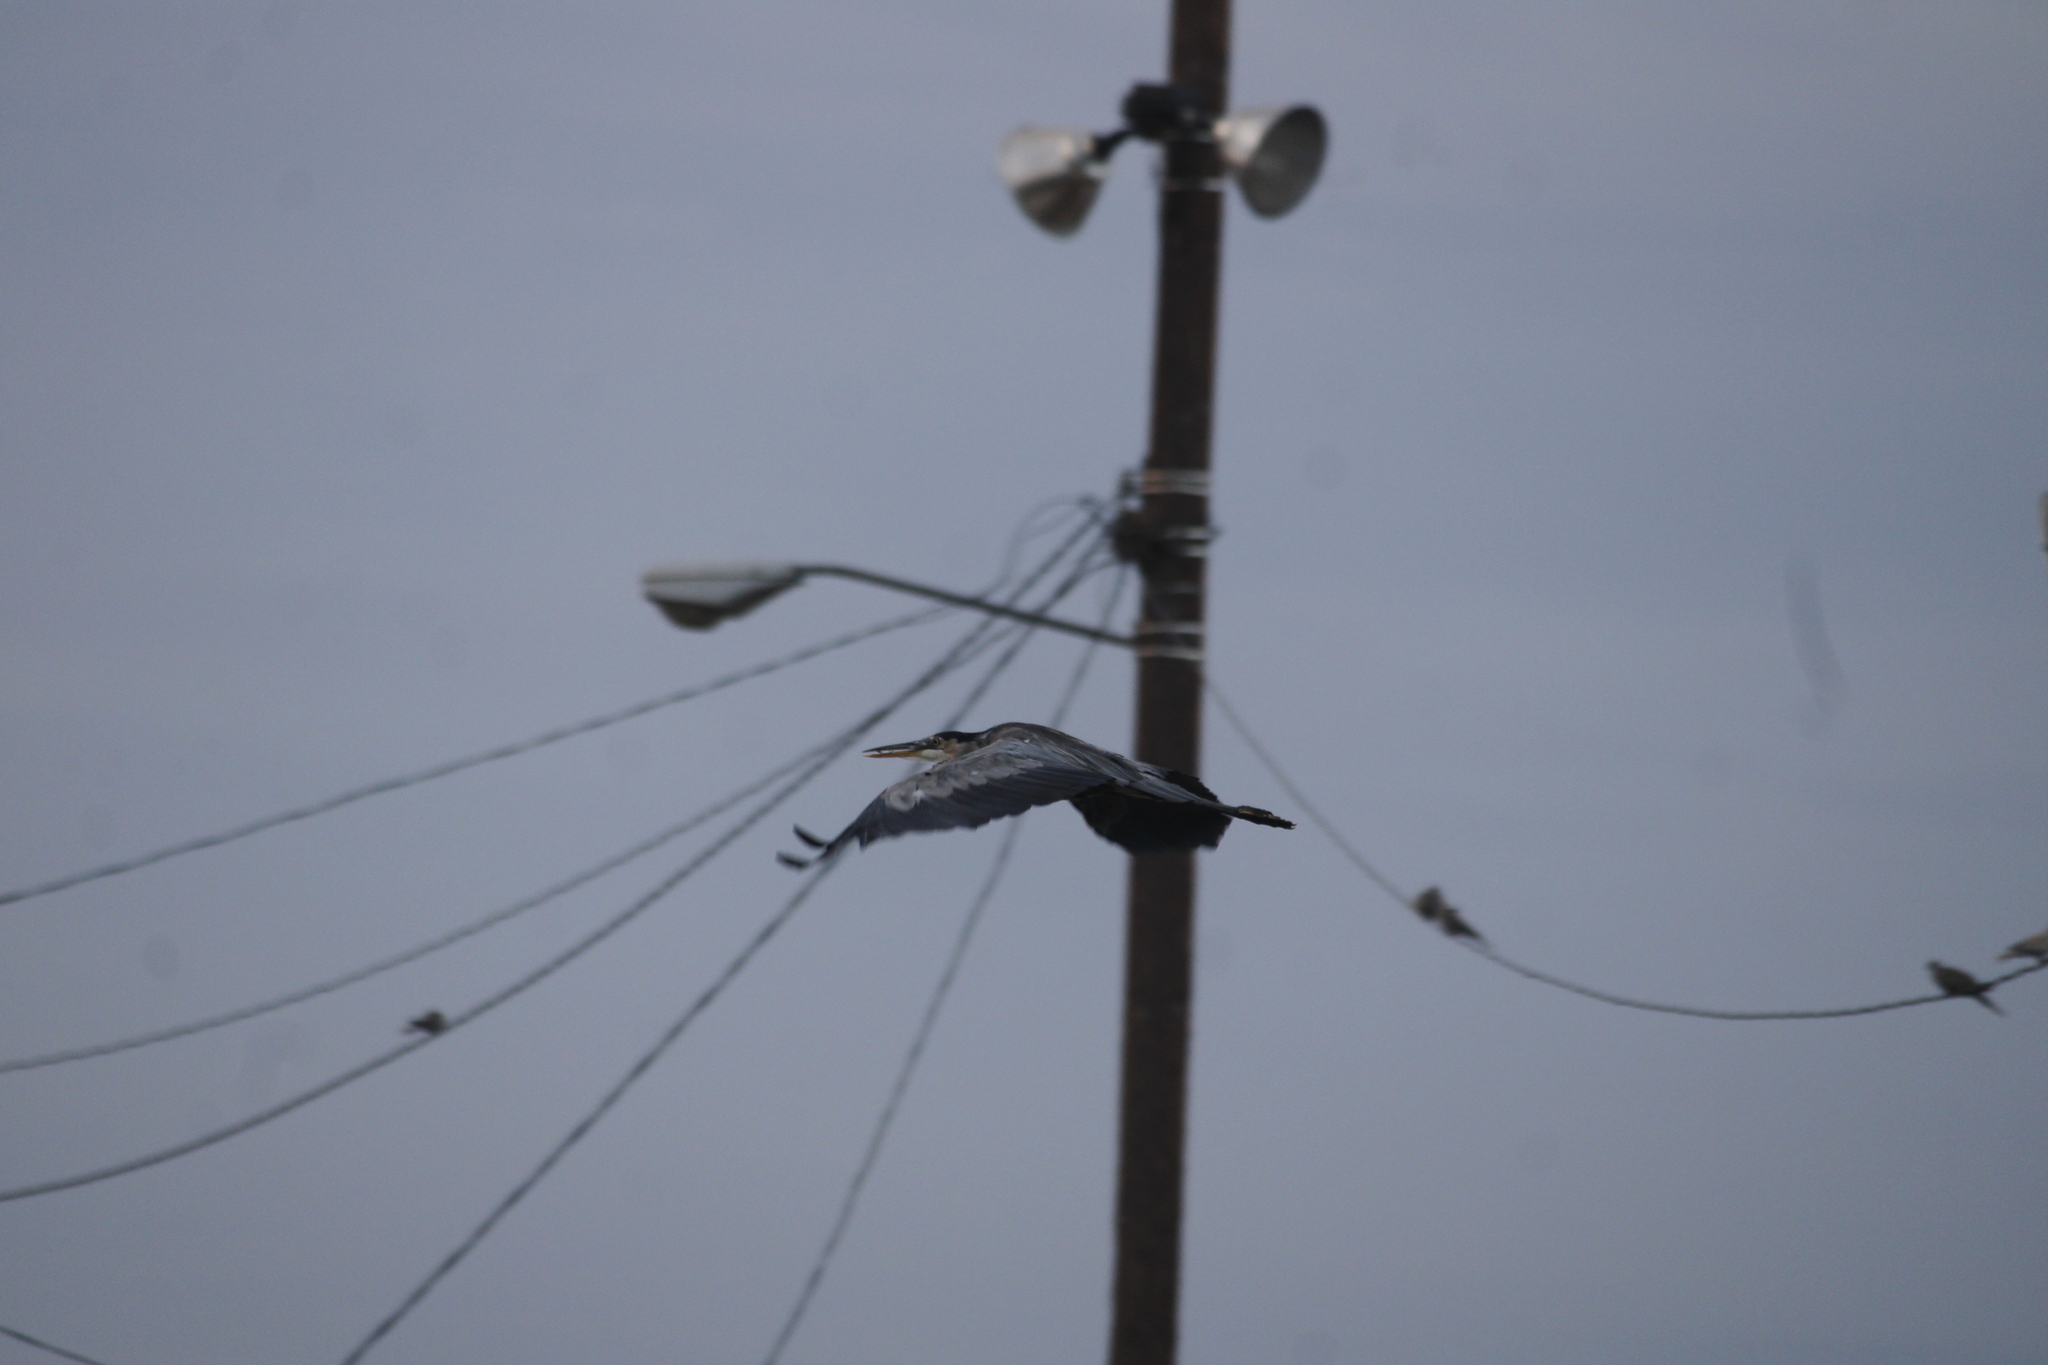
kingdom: Animalia
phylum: Chordata
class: Aves
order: Pelecaniformes
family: Ardeidae
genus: Ardea
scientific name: Ardea herodias
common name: Great blue heron
